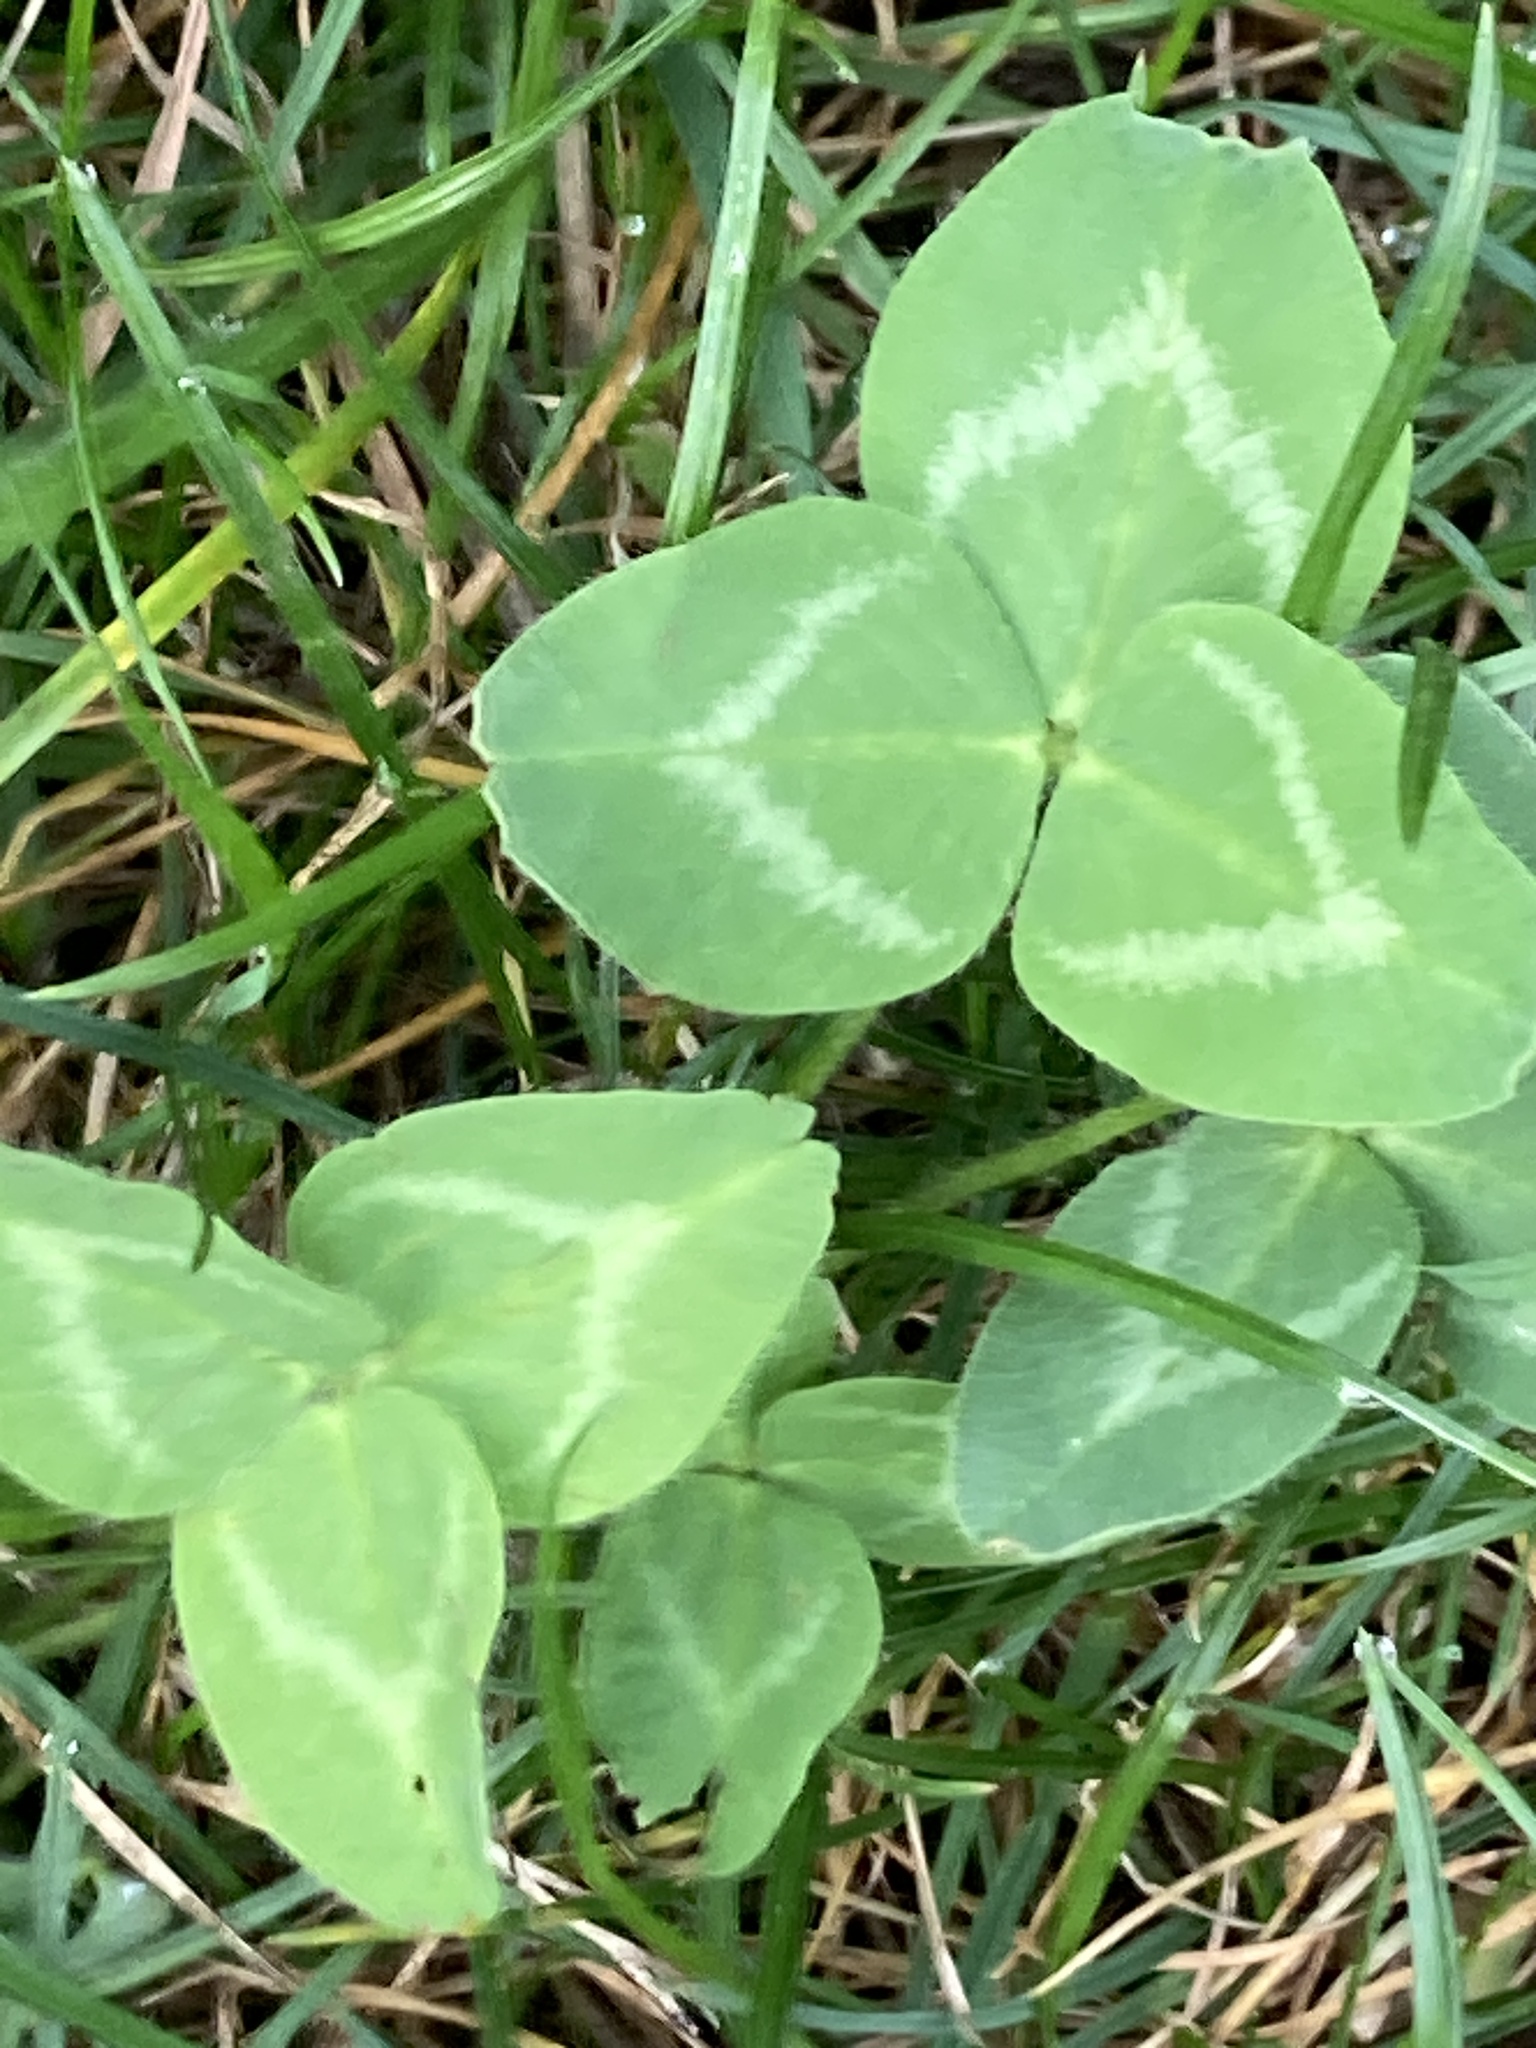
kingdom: Plantae
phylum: Tracheophyta
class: Magnoliopsida
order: Fabales
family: Fabaceae
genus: Trifolium
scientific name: Trifolium pratense
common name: Red clover
